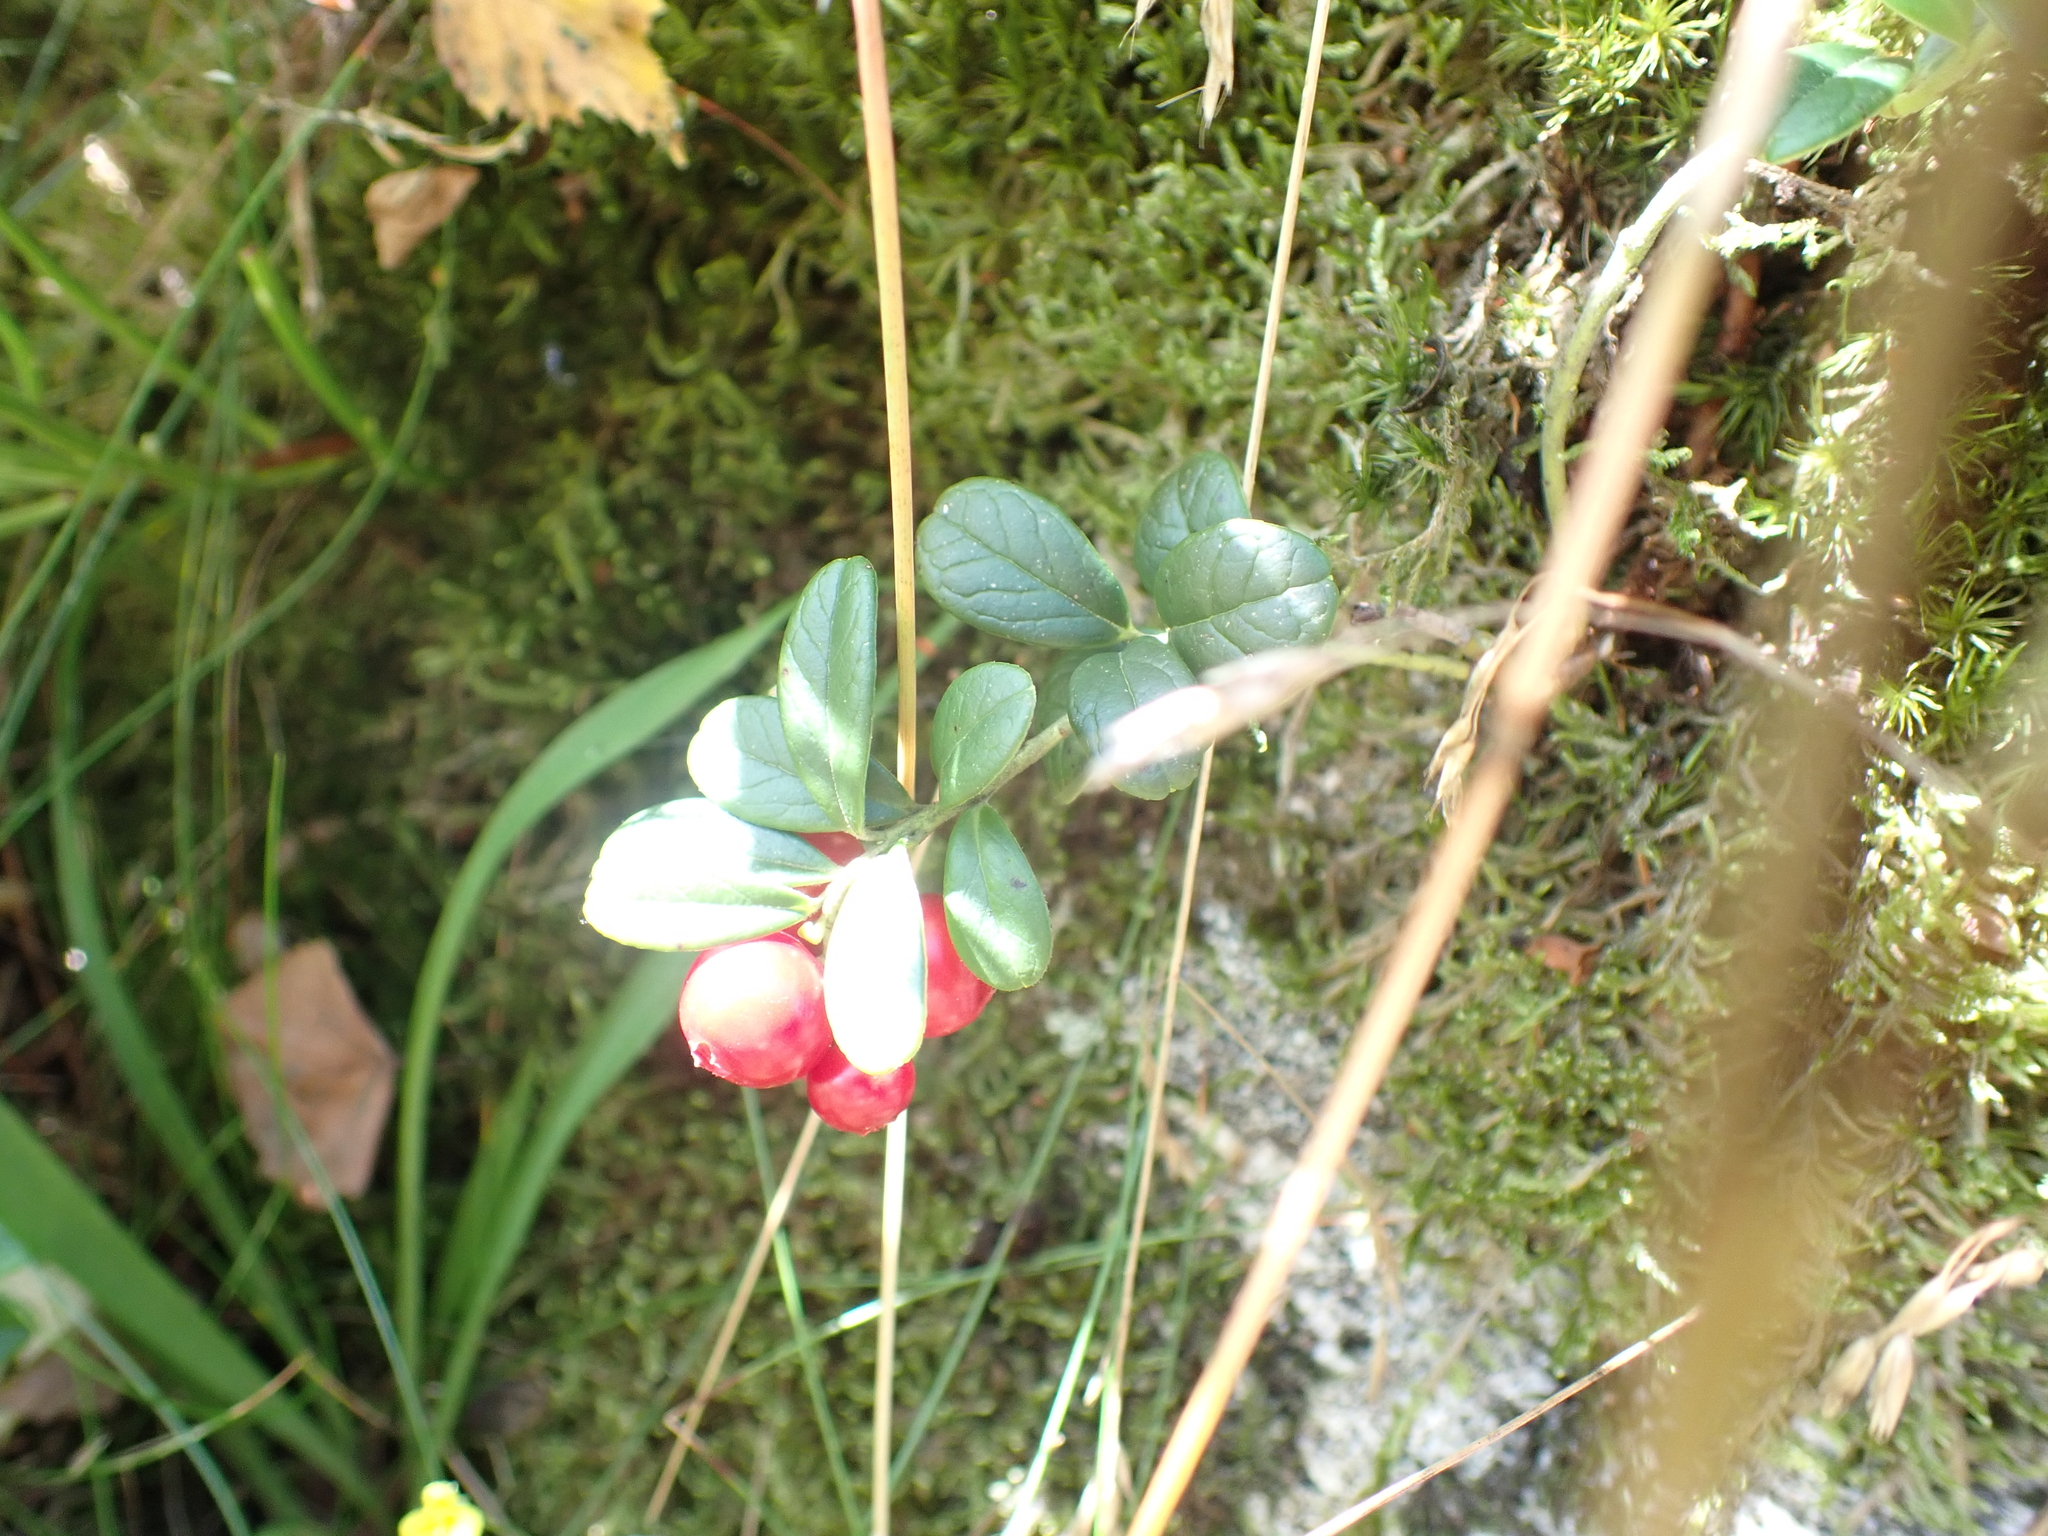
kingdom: Plantae
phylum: Tracheophyta
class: Magnoliopsida
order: Ericales
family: Ericaceae
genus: Vaccinium
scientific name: Vaccinium vitis-idaea
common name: Cowberry
